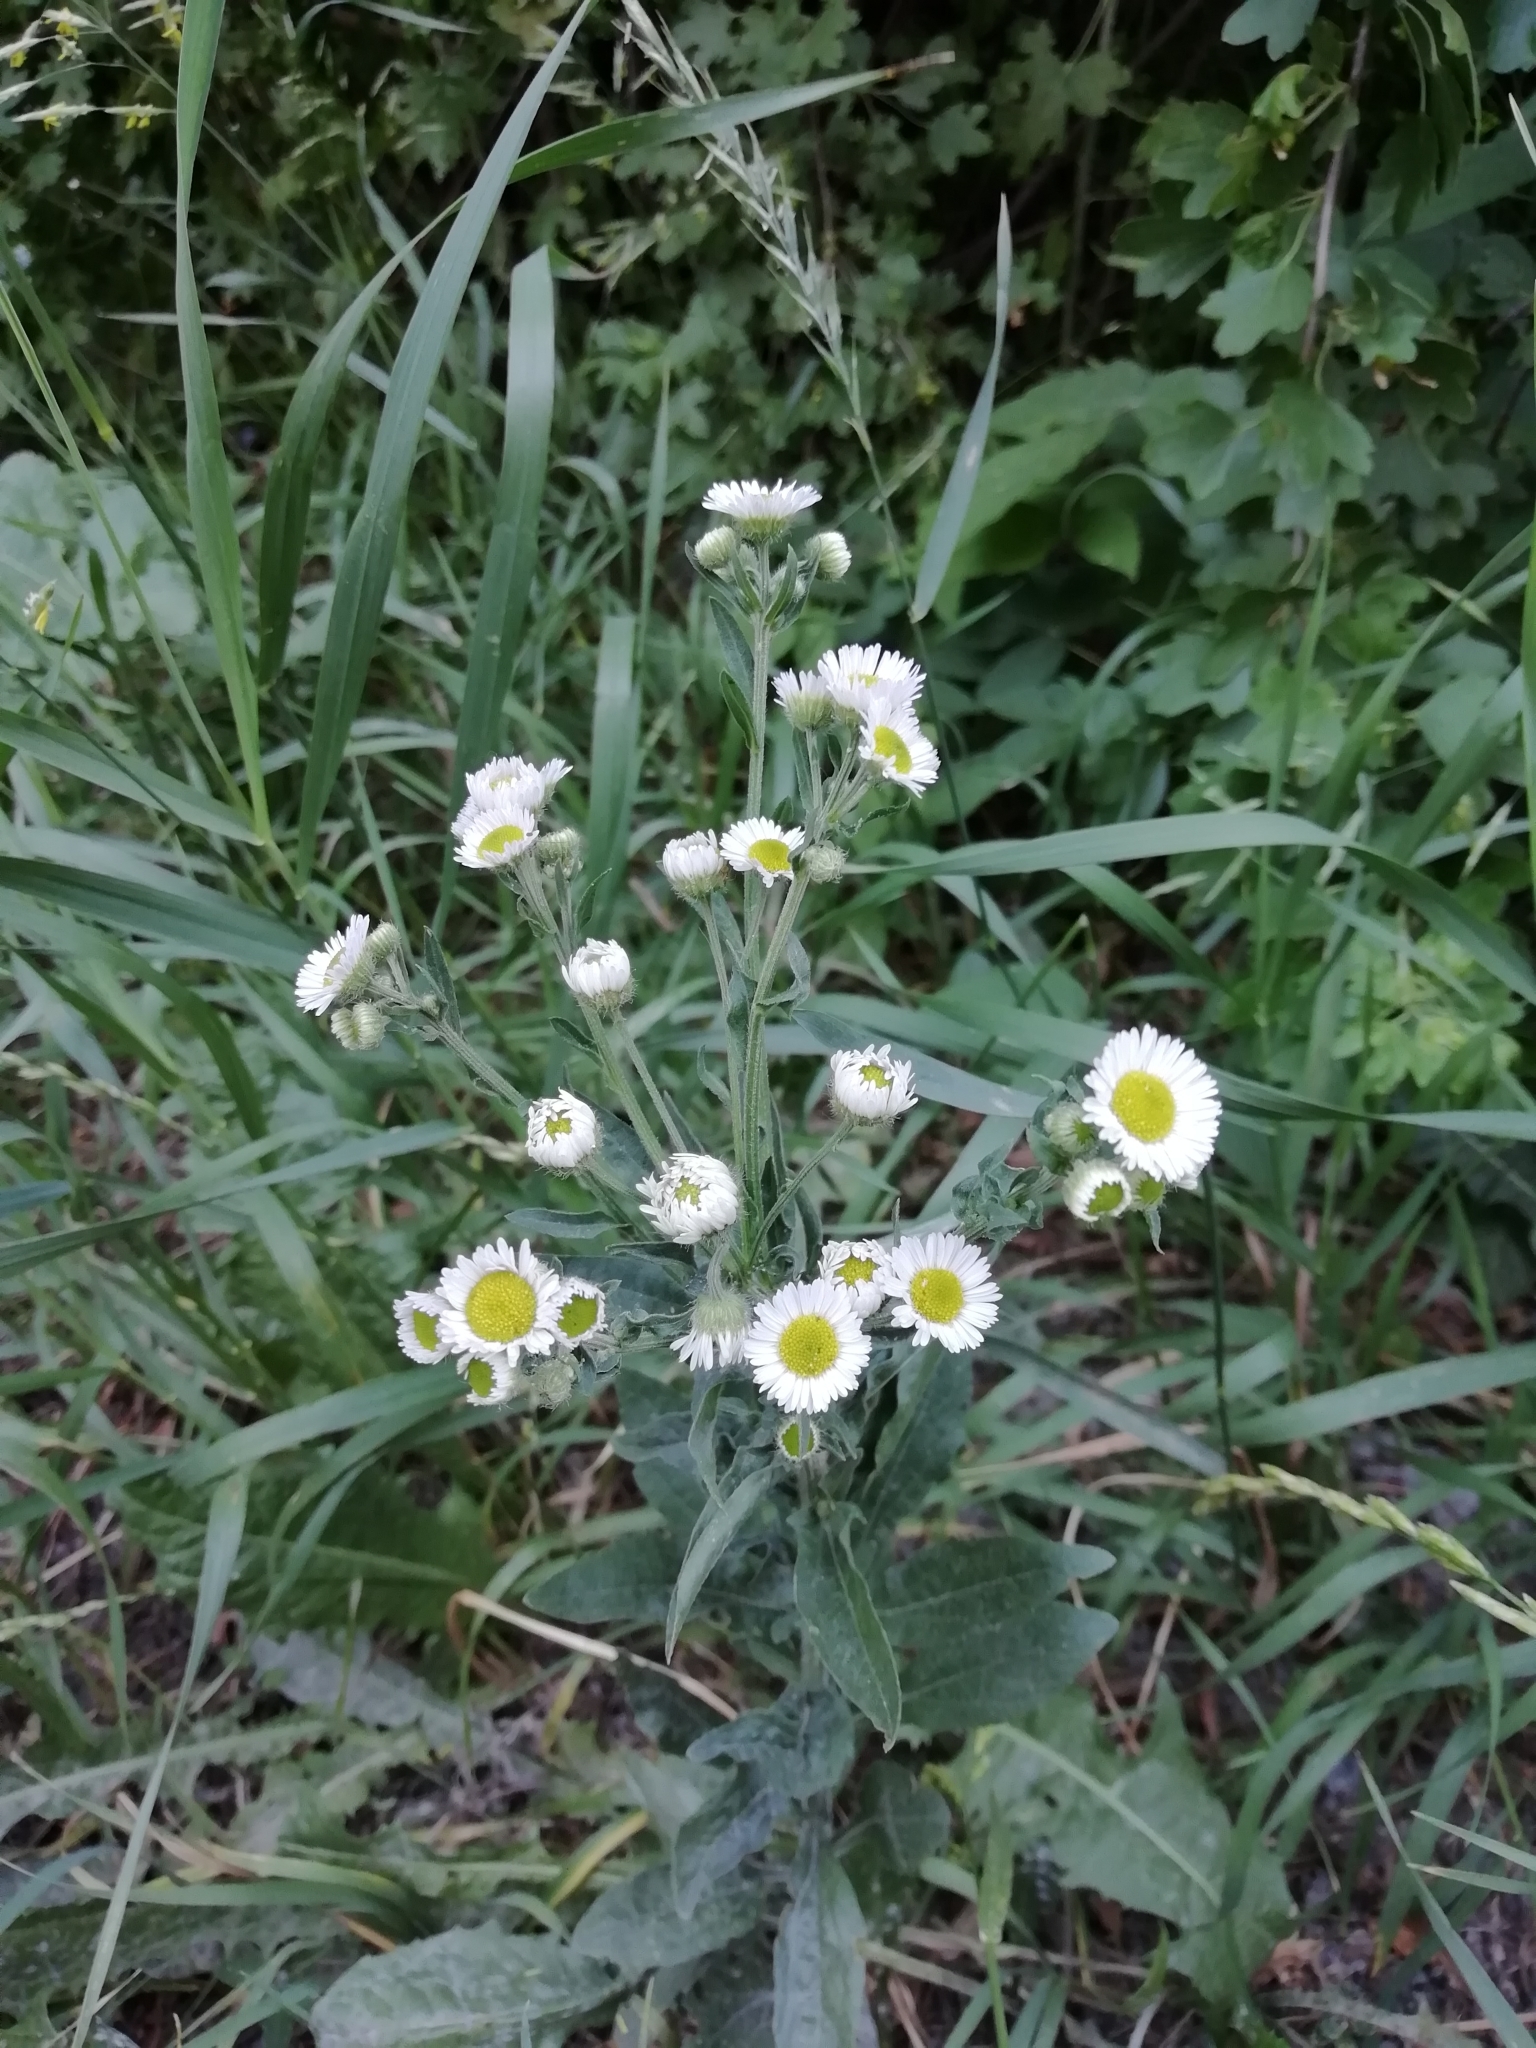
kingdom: Plantae
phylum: Tracheophyta
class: Magnoliopsida
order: Asterales
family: Asteraceae
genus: Erigeron
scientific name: Erigeron annuus
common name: Tall fleabane
